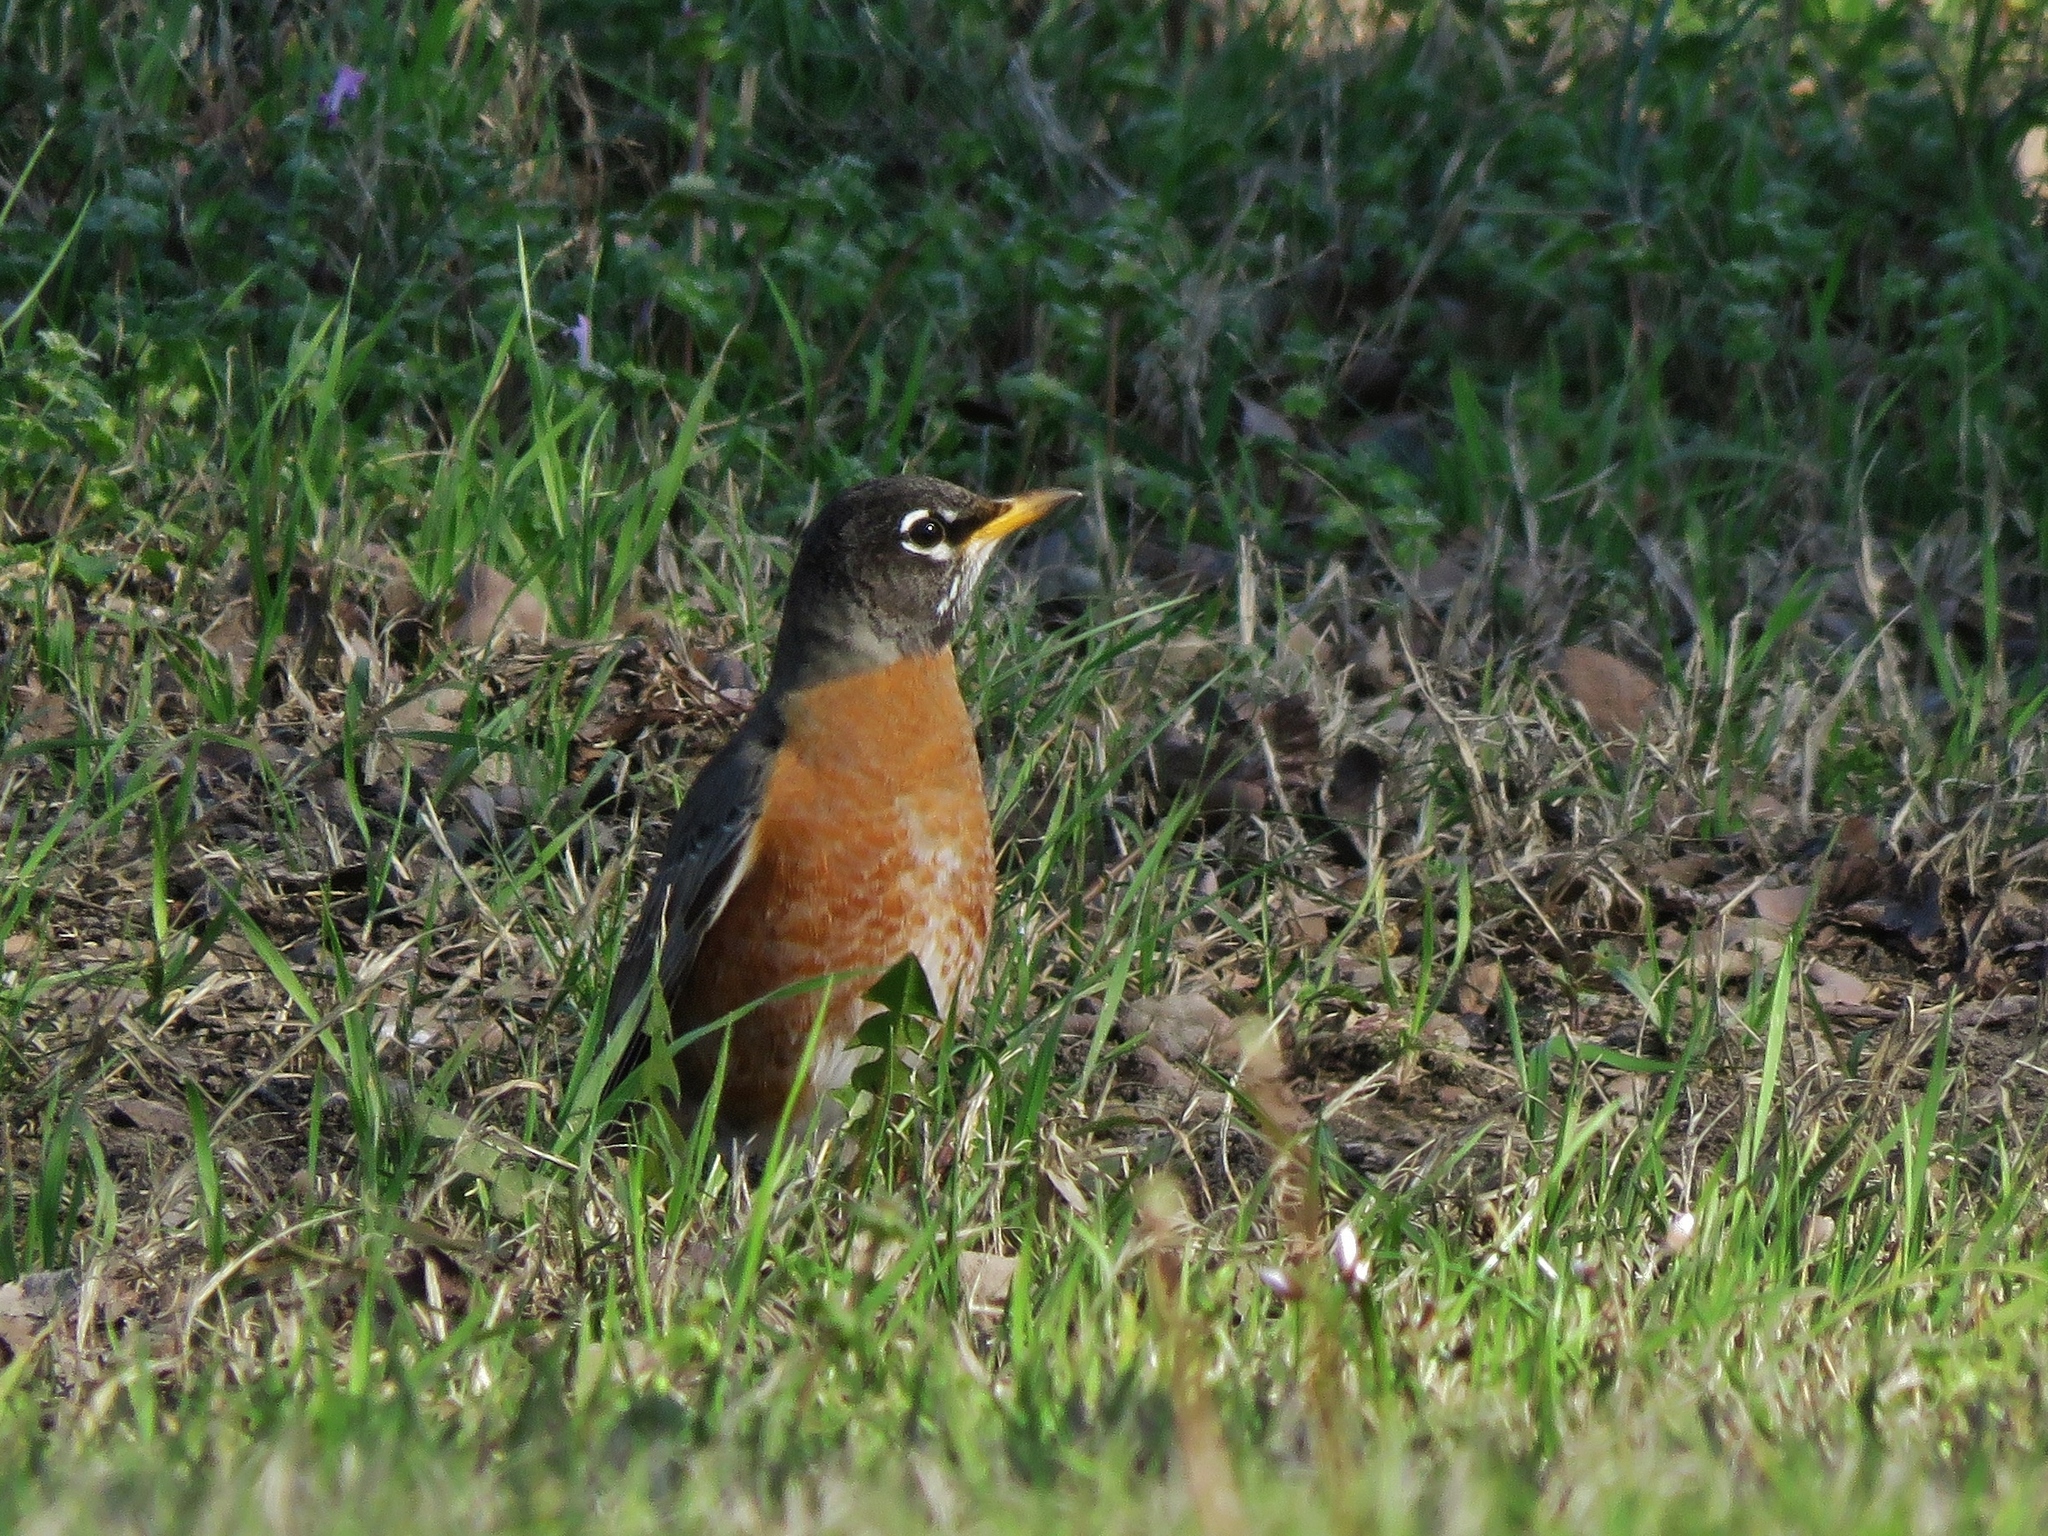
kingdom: Animalia
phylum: Chordata
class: Aves
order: Passeriformes
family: Turdidae
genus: Turdus
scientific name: Turdus migratorius
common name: American robin
